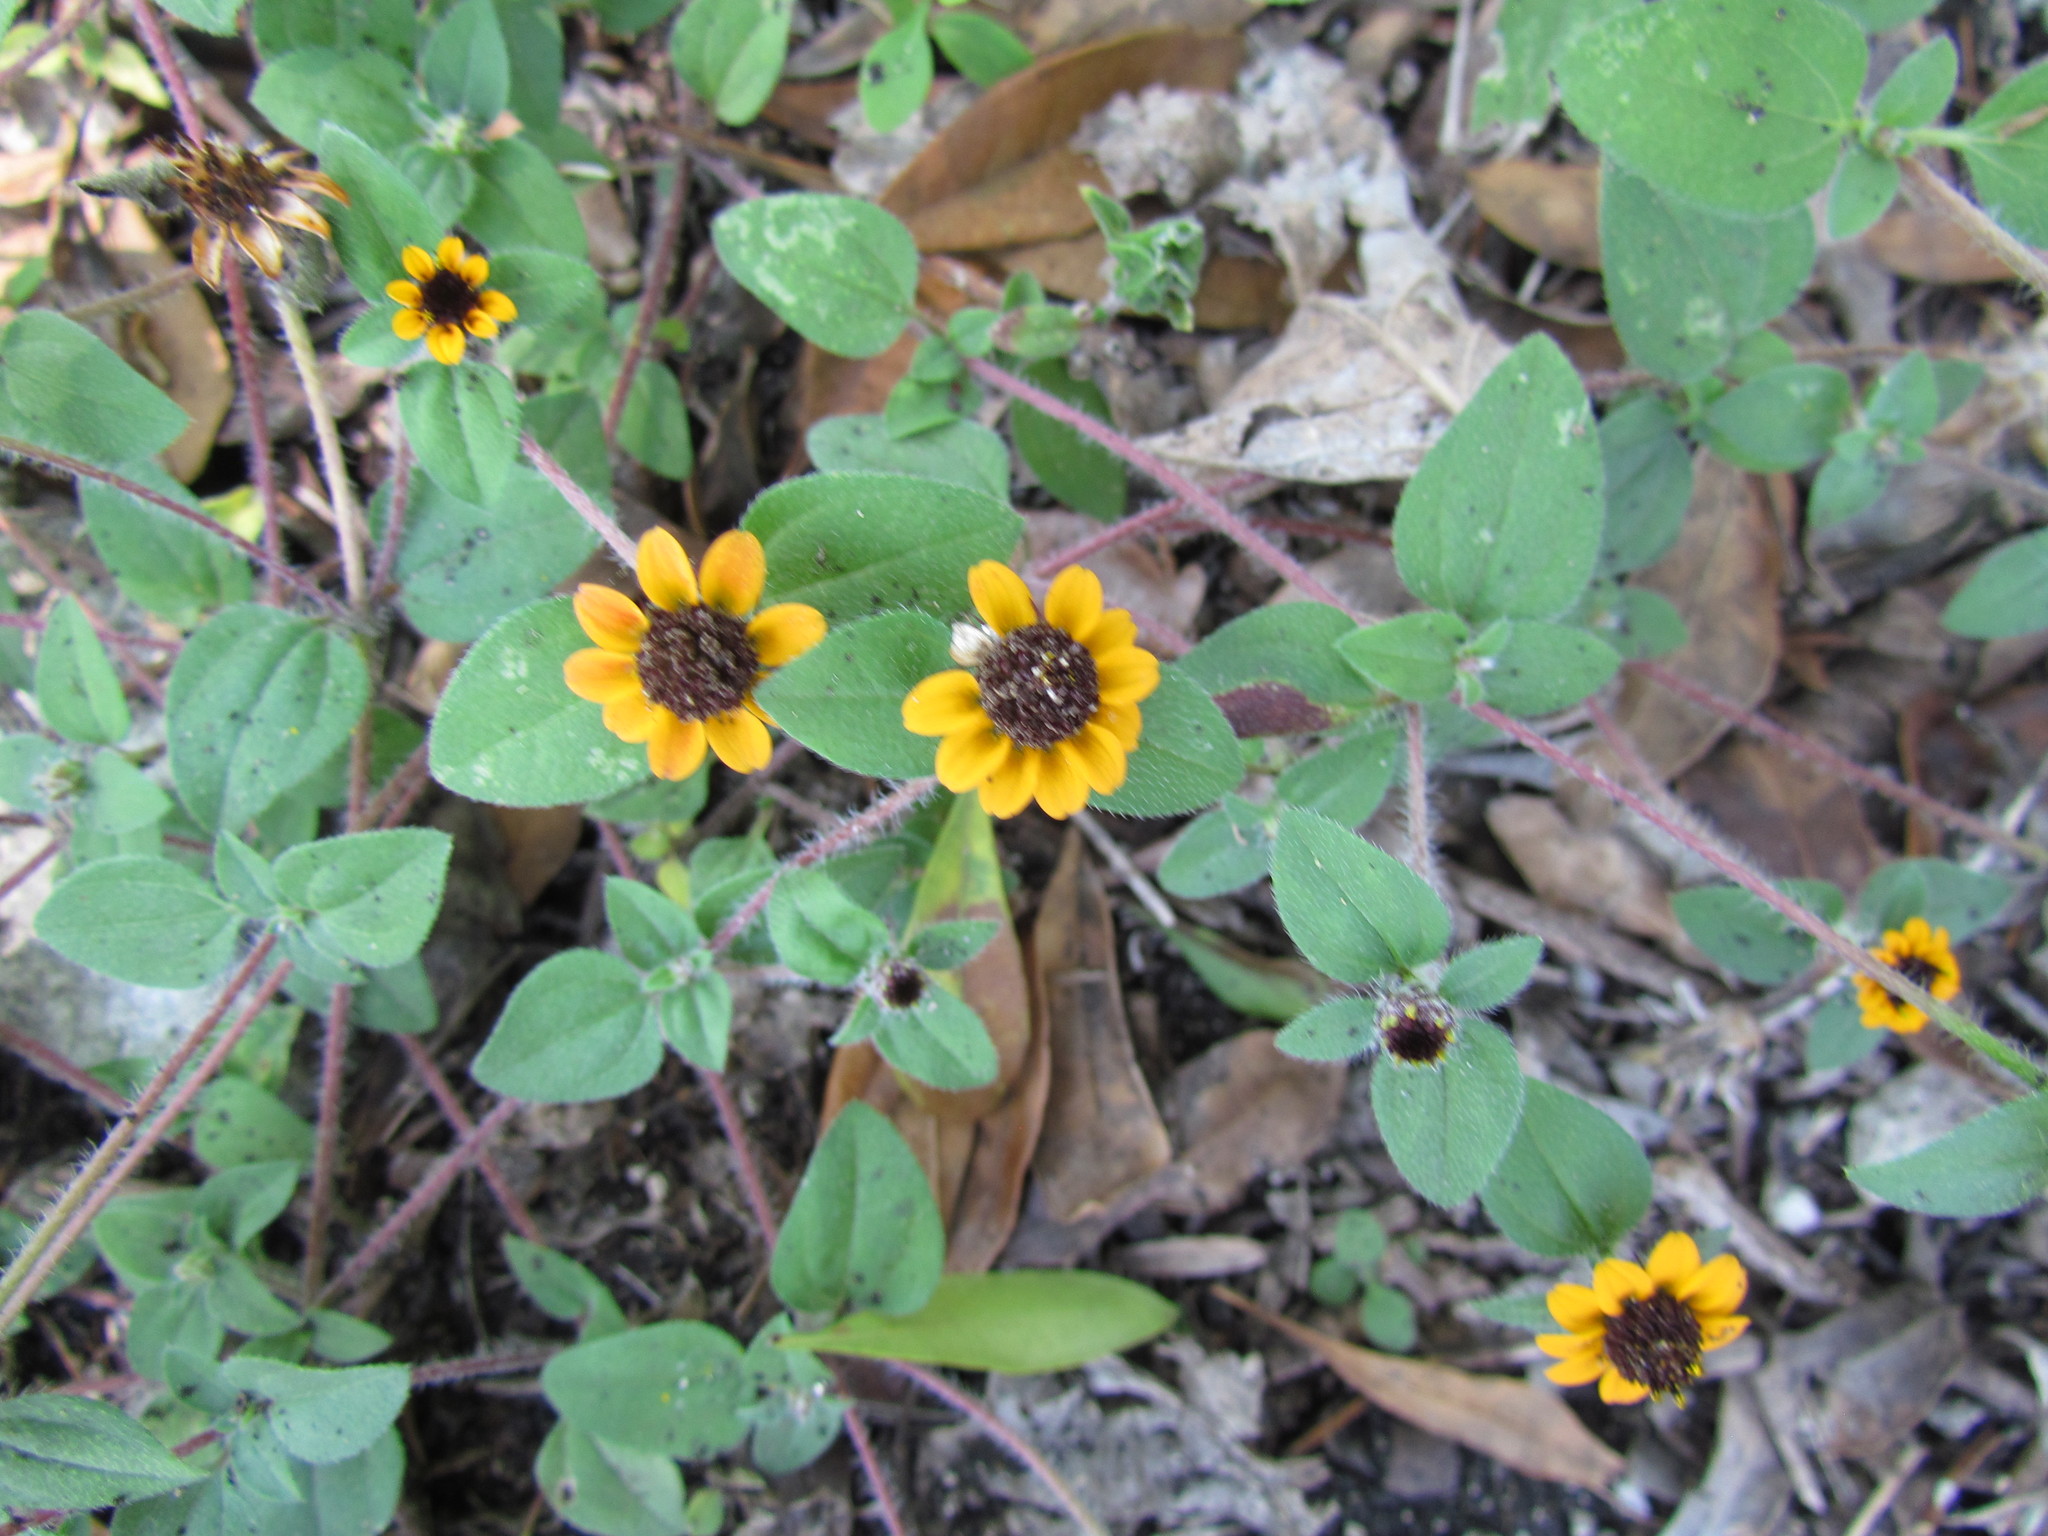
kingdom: Plantae
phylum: Tracheophyta
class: Magnoliopsida
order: Asterales
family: Asteraceae
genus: Sanvitalia
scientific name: Sanvitalia procumbens
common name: Mexican creeping zinnia
